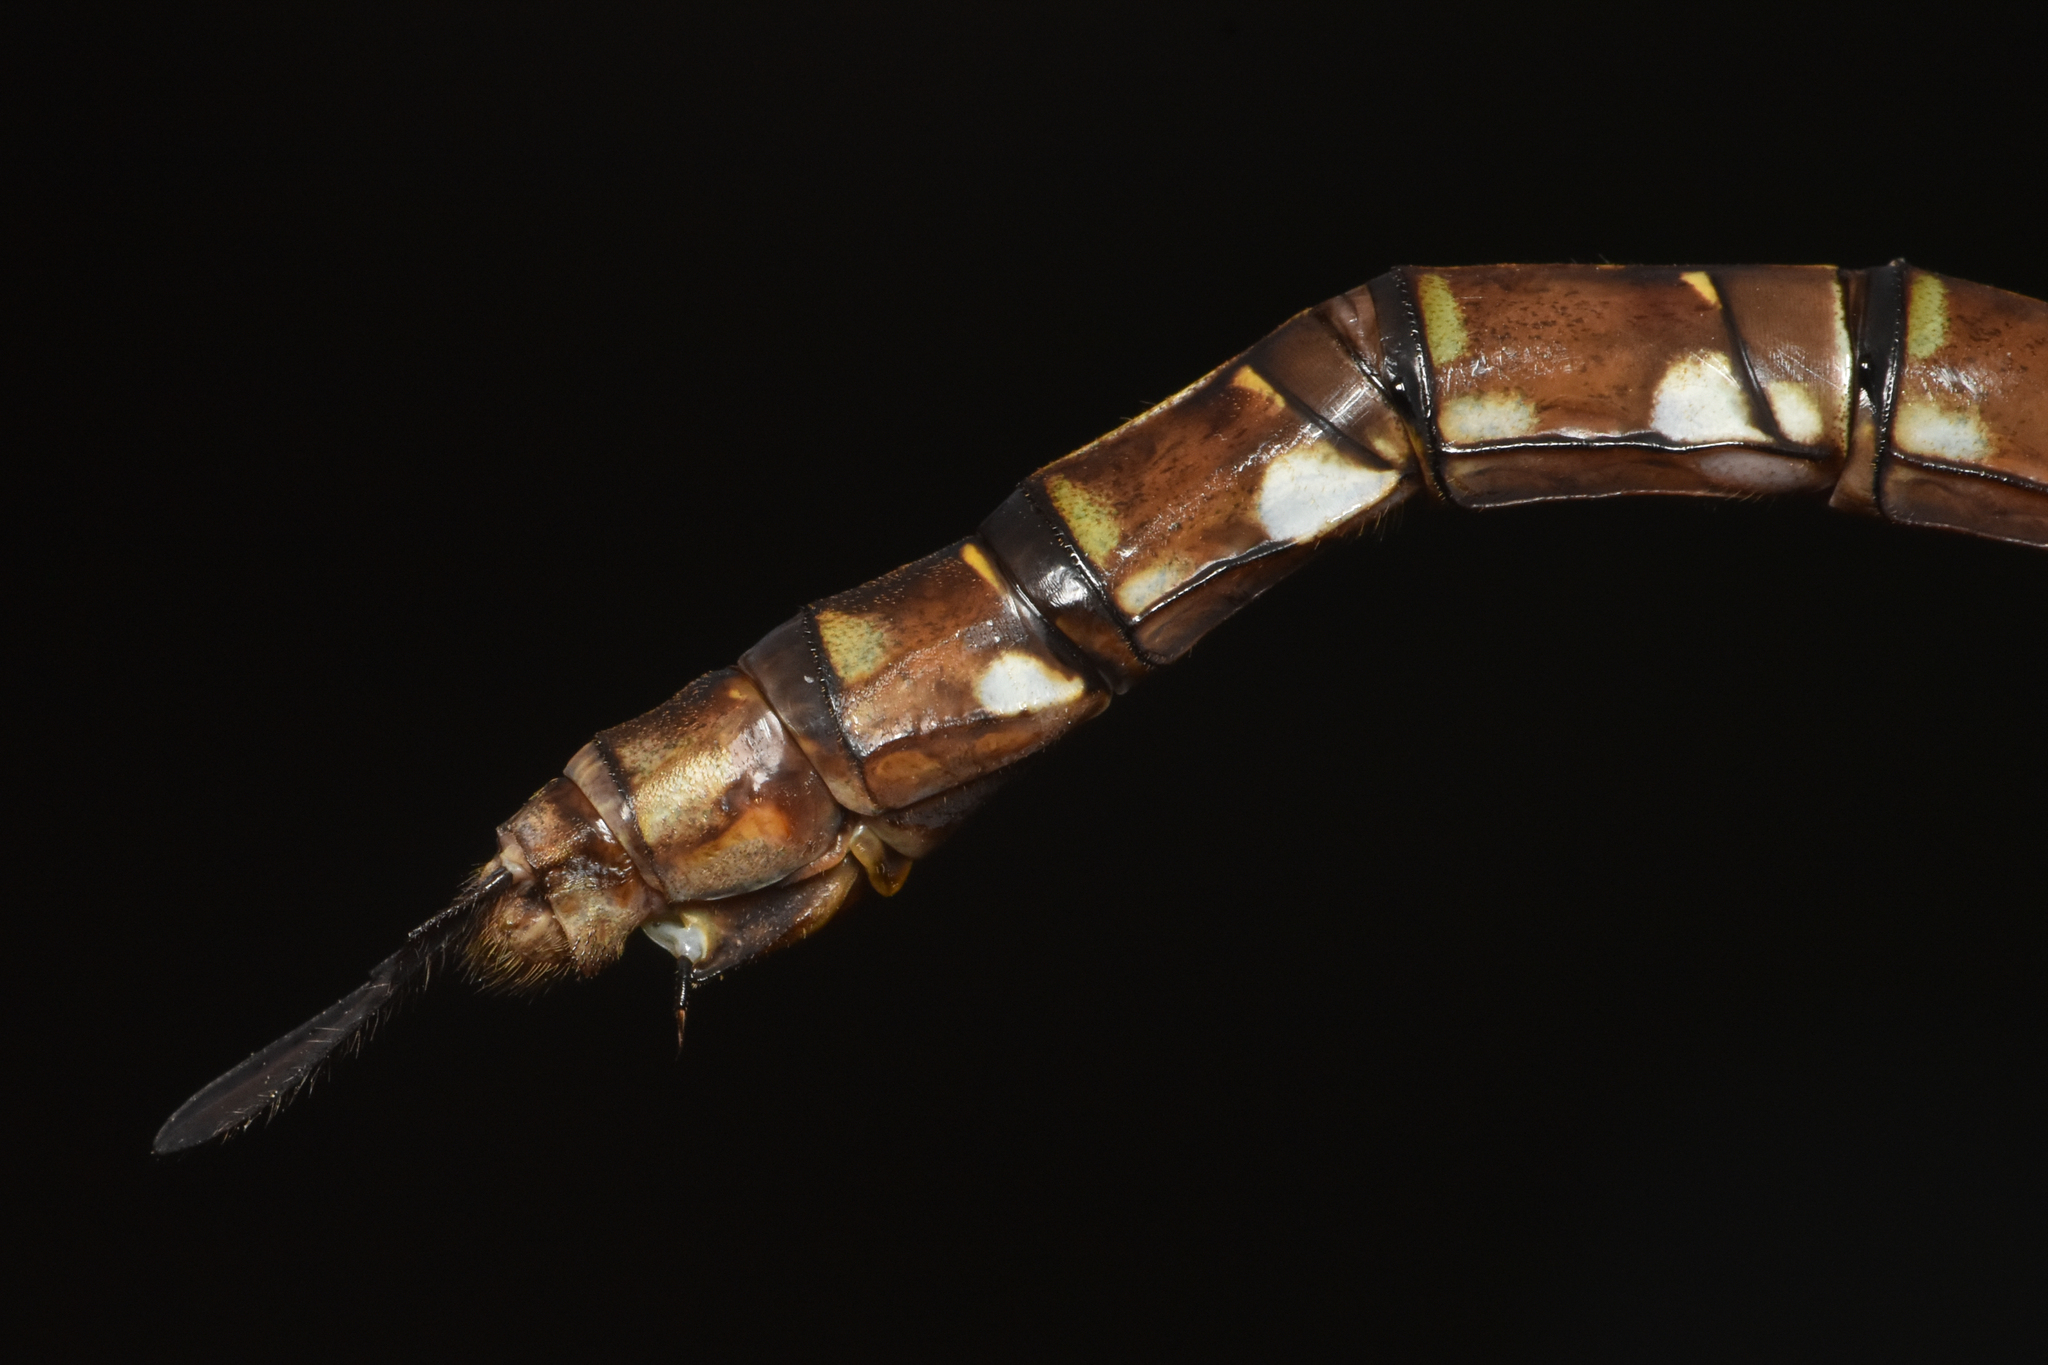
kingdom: Animalia
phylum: Arthropoda
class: Insecta
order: Odonata
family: Aeshnidae
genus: Aeshna
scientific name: Aeshna umbrosa
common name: Shadow darner
